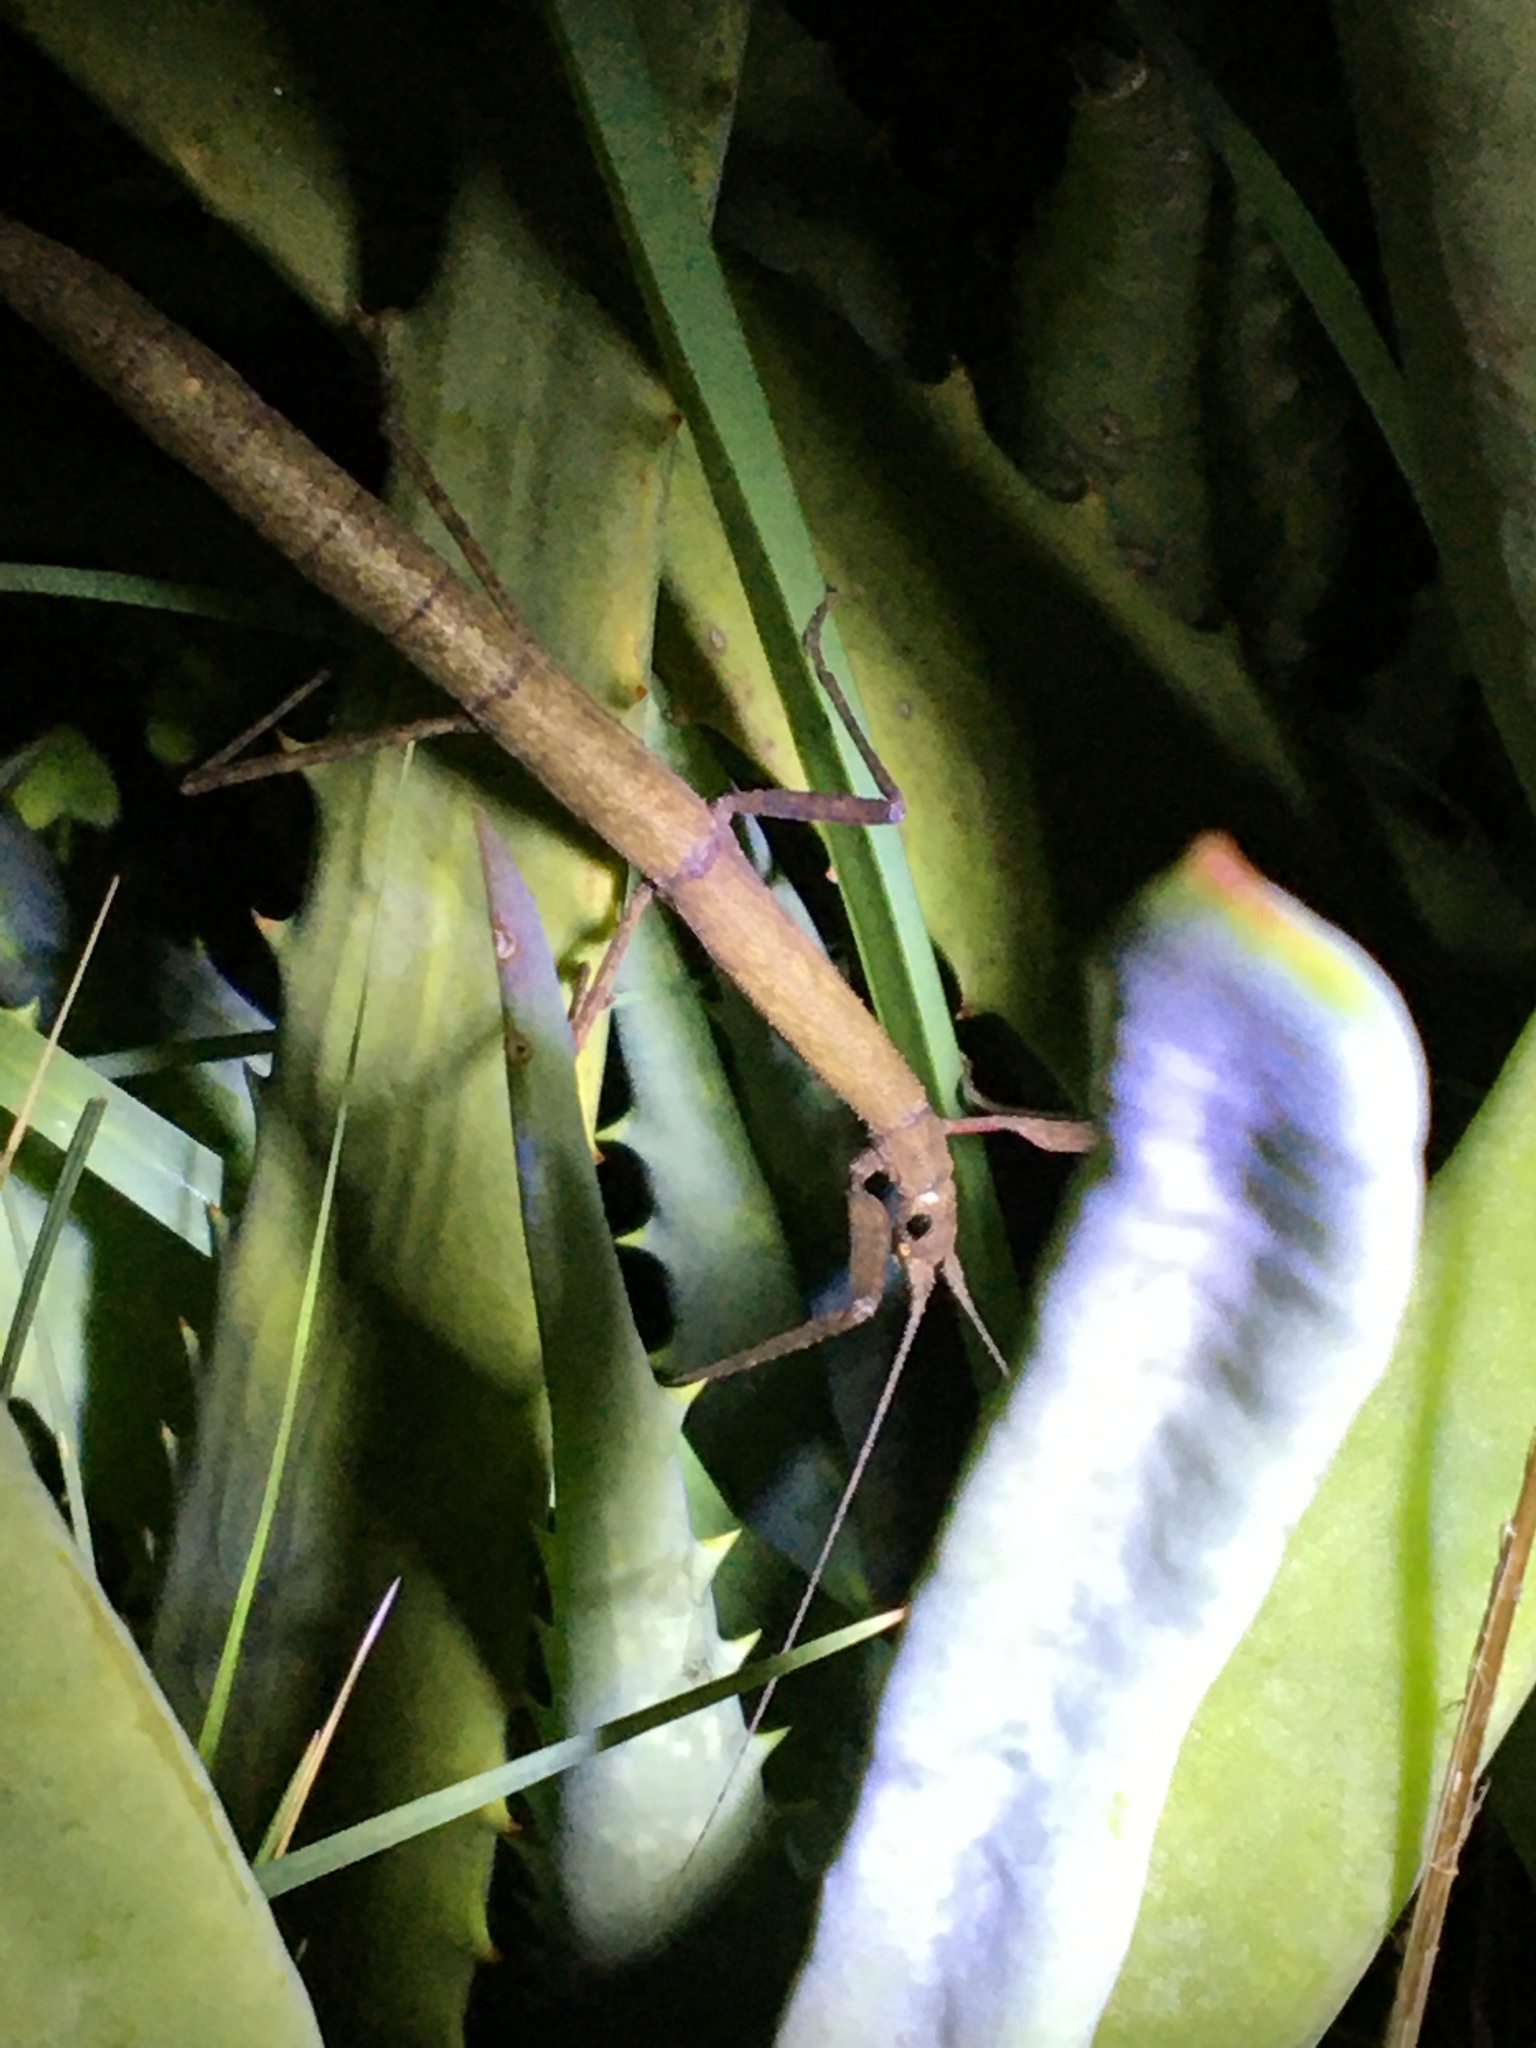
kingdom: Animalia
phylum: Arthropoda
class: Insecta
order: Phasmida
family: Lonchodidae
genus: Carausius
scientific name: Carausius morosus
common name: Indian stick insect
